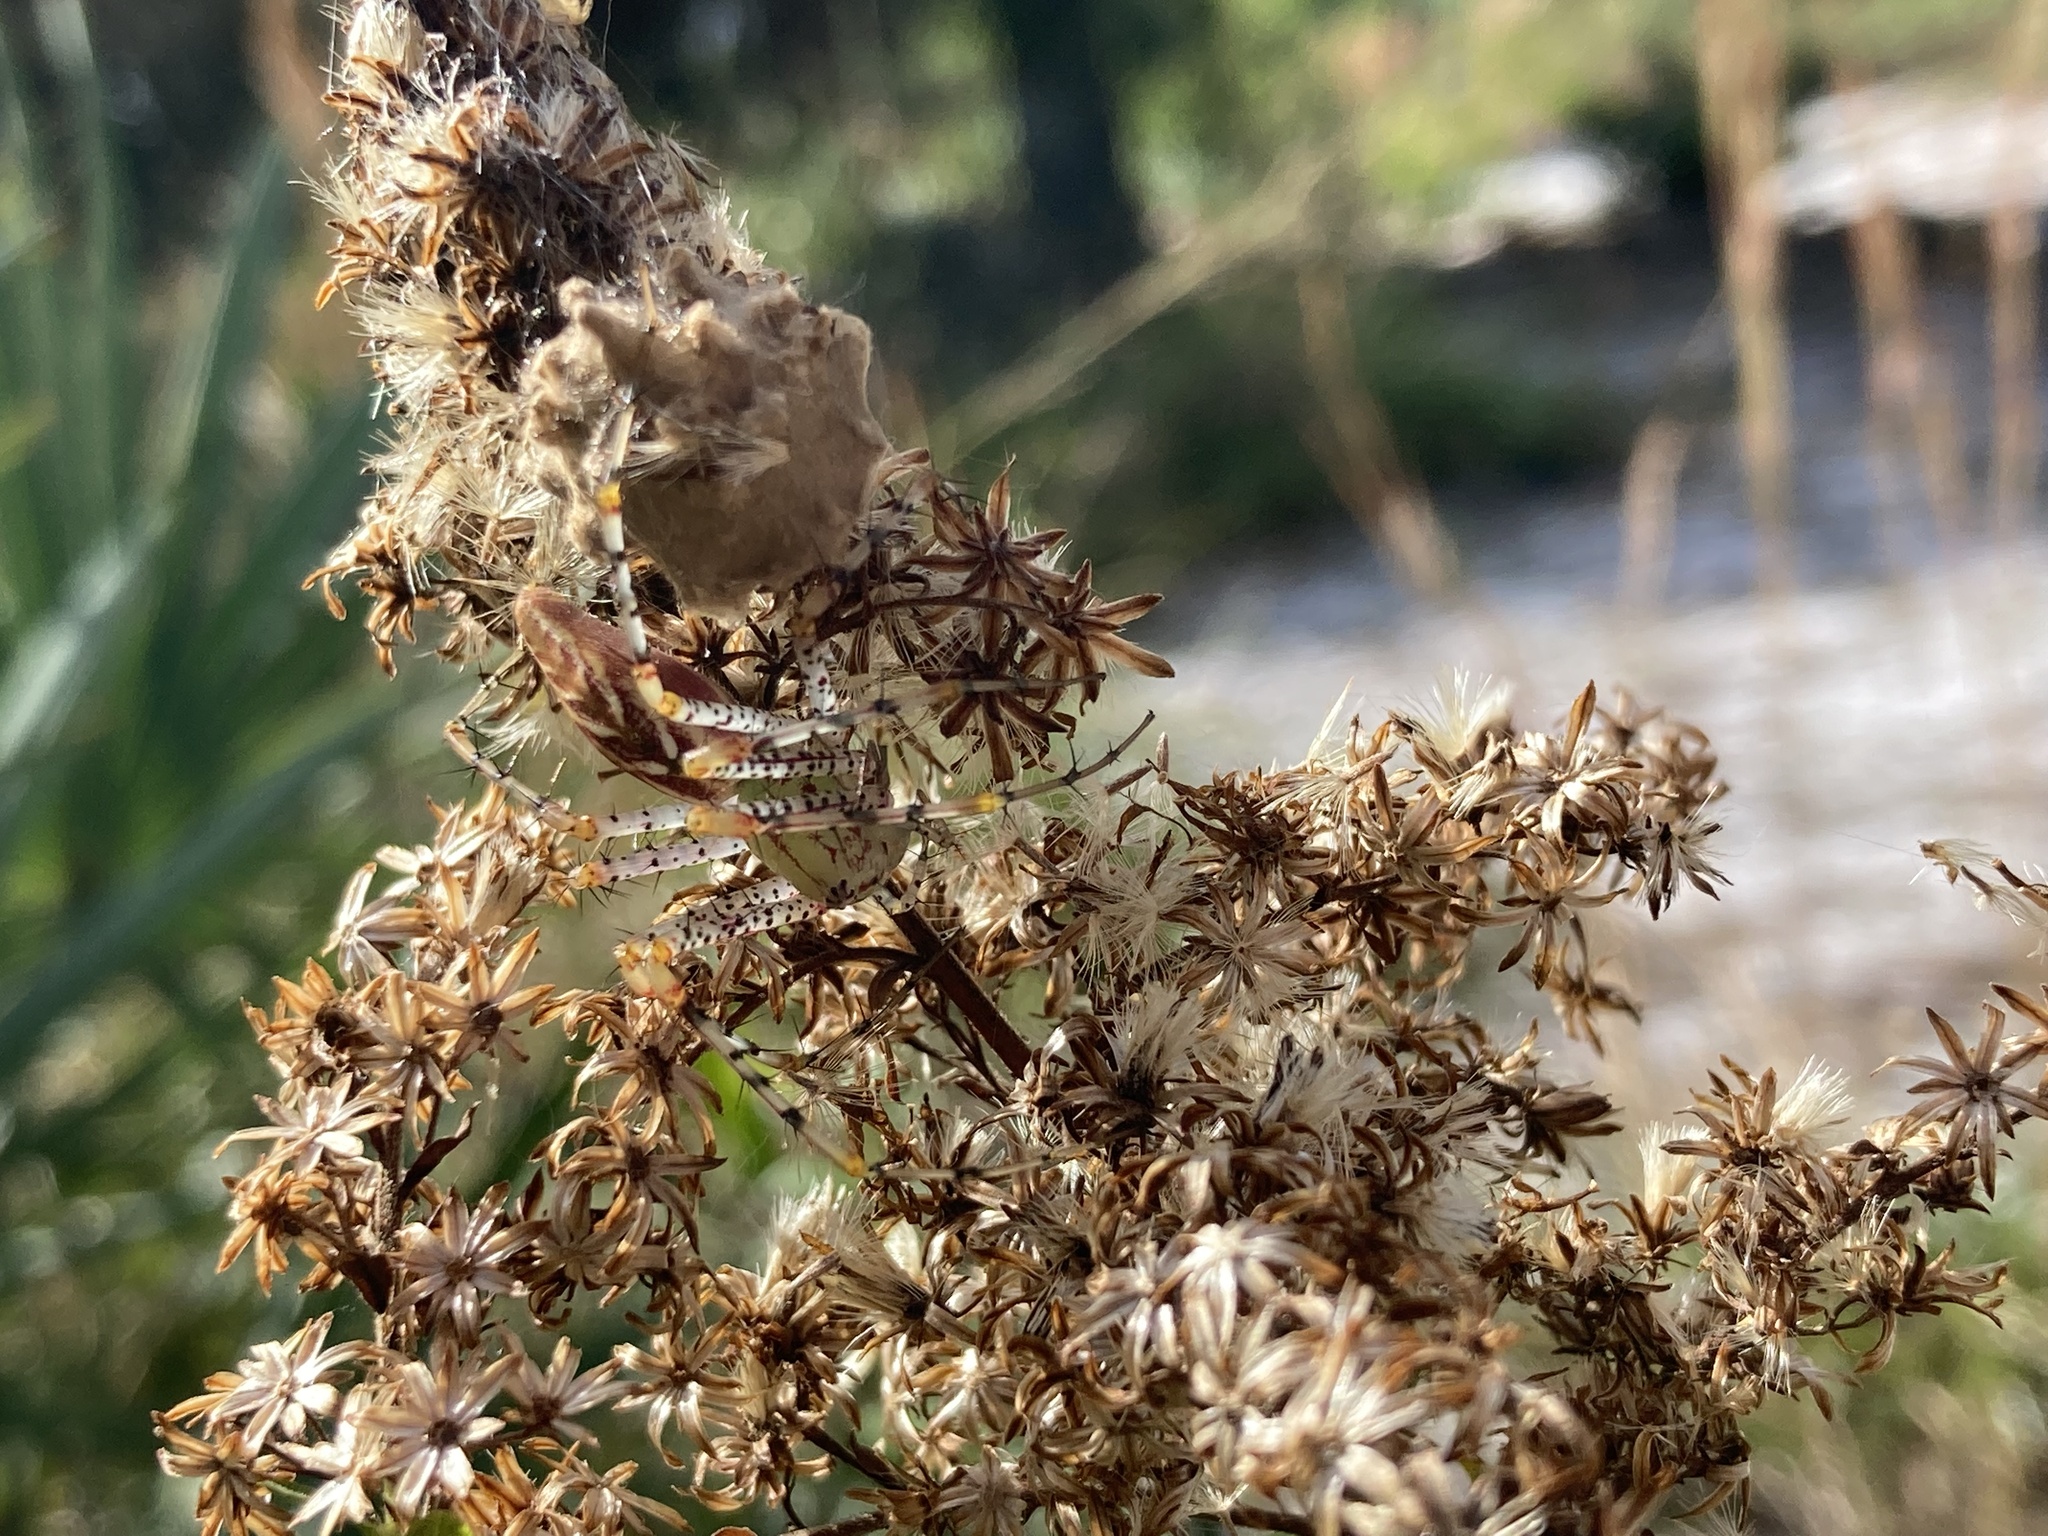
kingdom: Animalia
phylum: Arthropoda
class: Arachnida
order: Araneae
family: Oxyopidae
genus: Peucetia
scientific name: Peucetia viridans
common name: Lynx spiders
